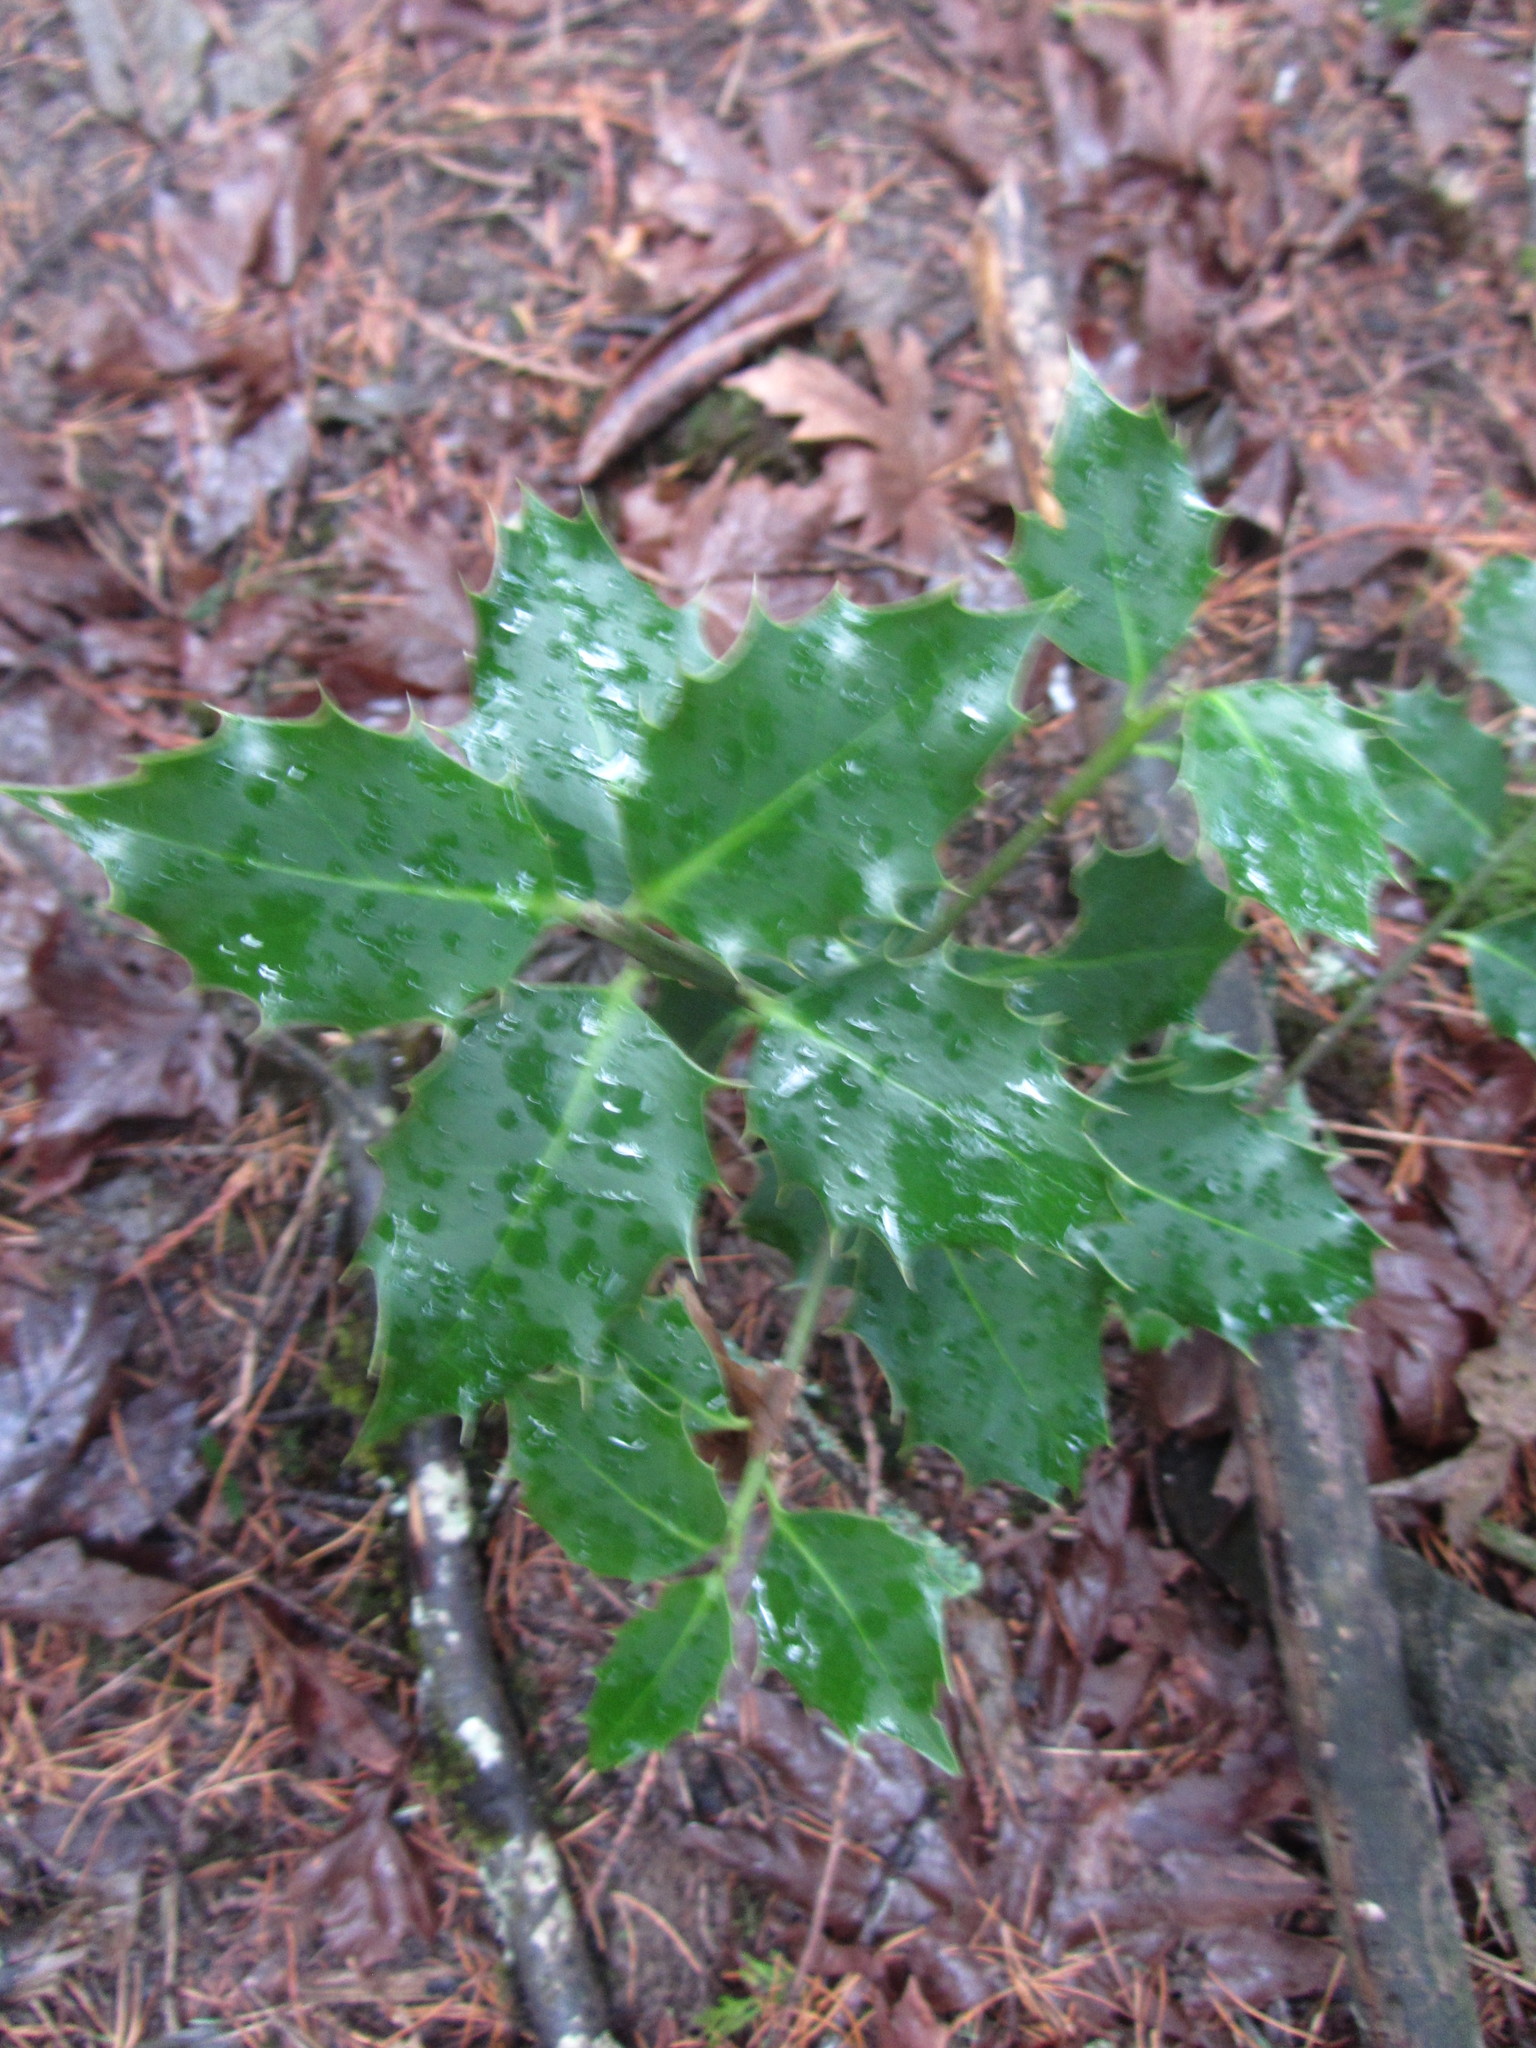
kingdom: Plantae
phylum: Tracheophyta
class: Magnoliopsida
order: Aquifoliales
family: Aquifoliaceae
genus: Ilex
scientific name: Ilex aquifolium
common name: English holly
